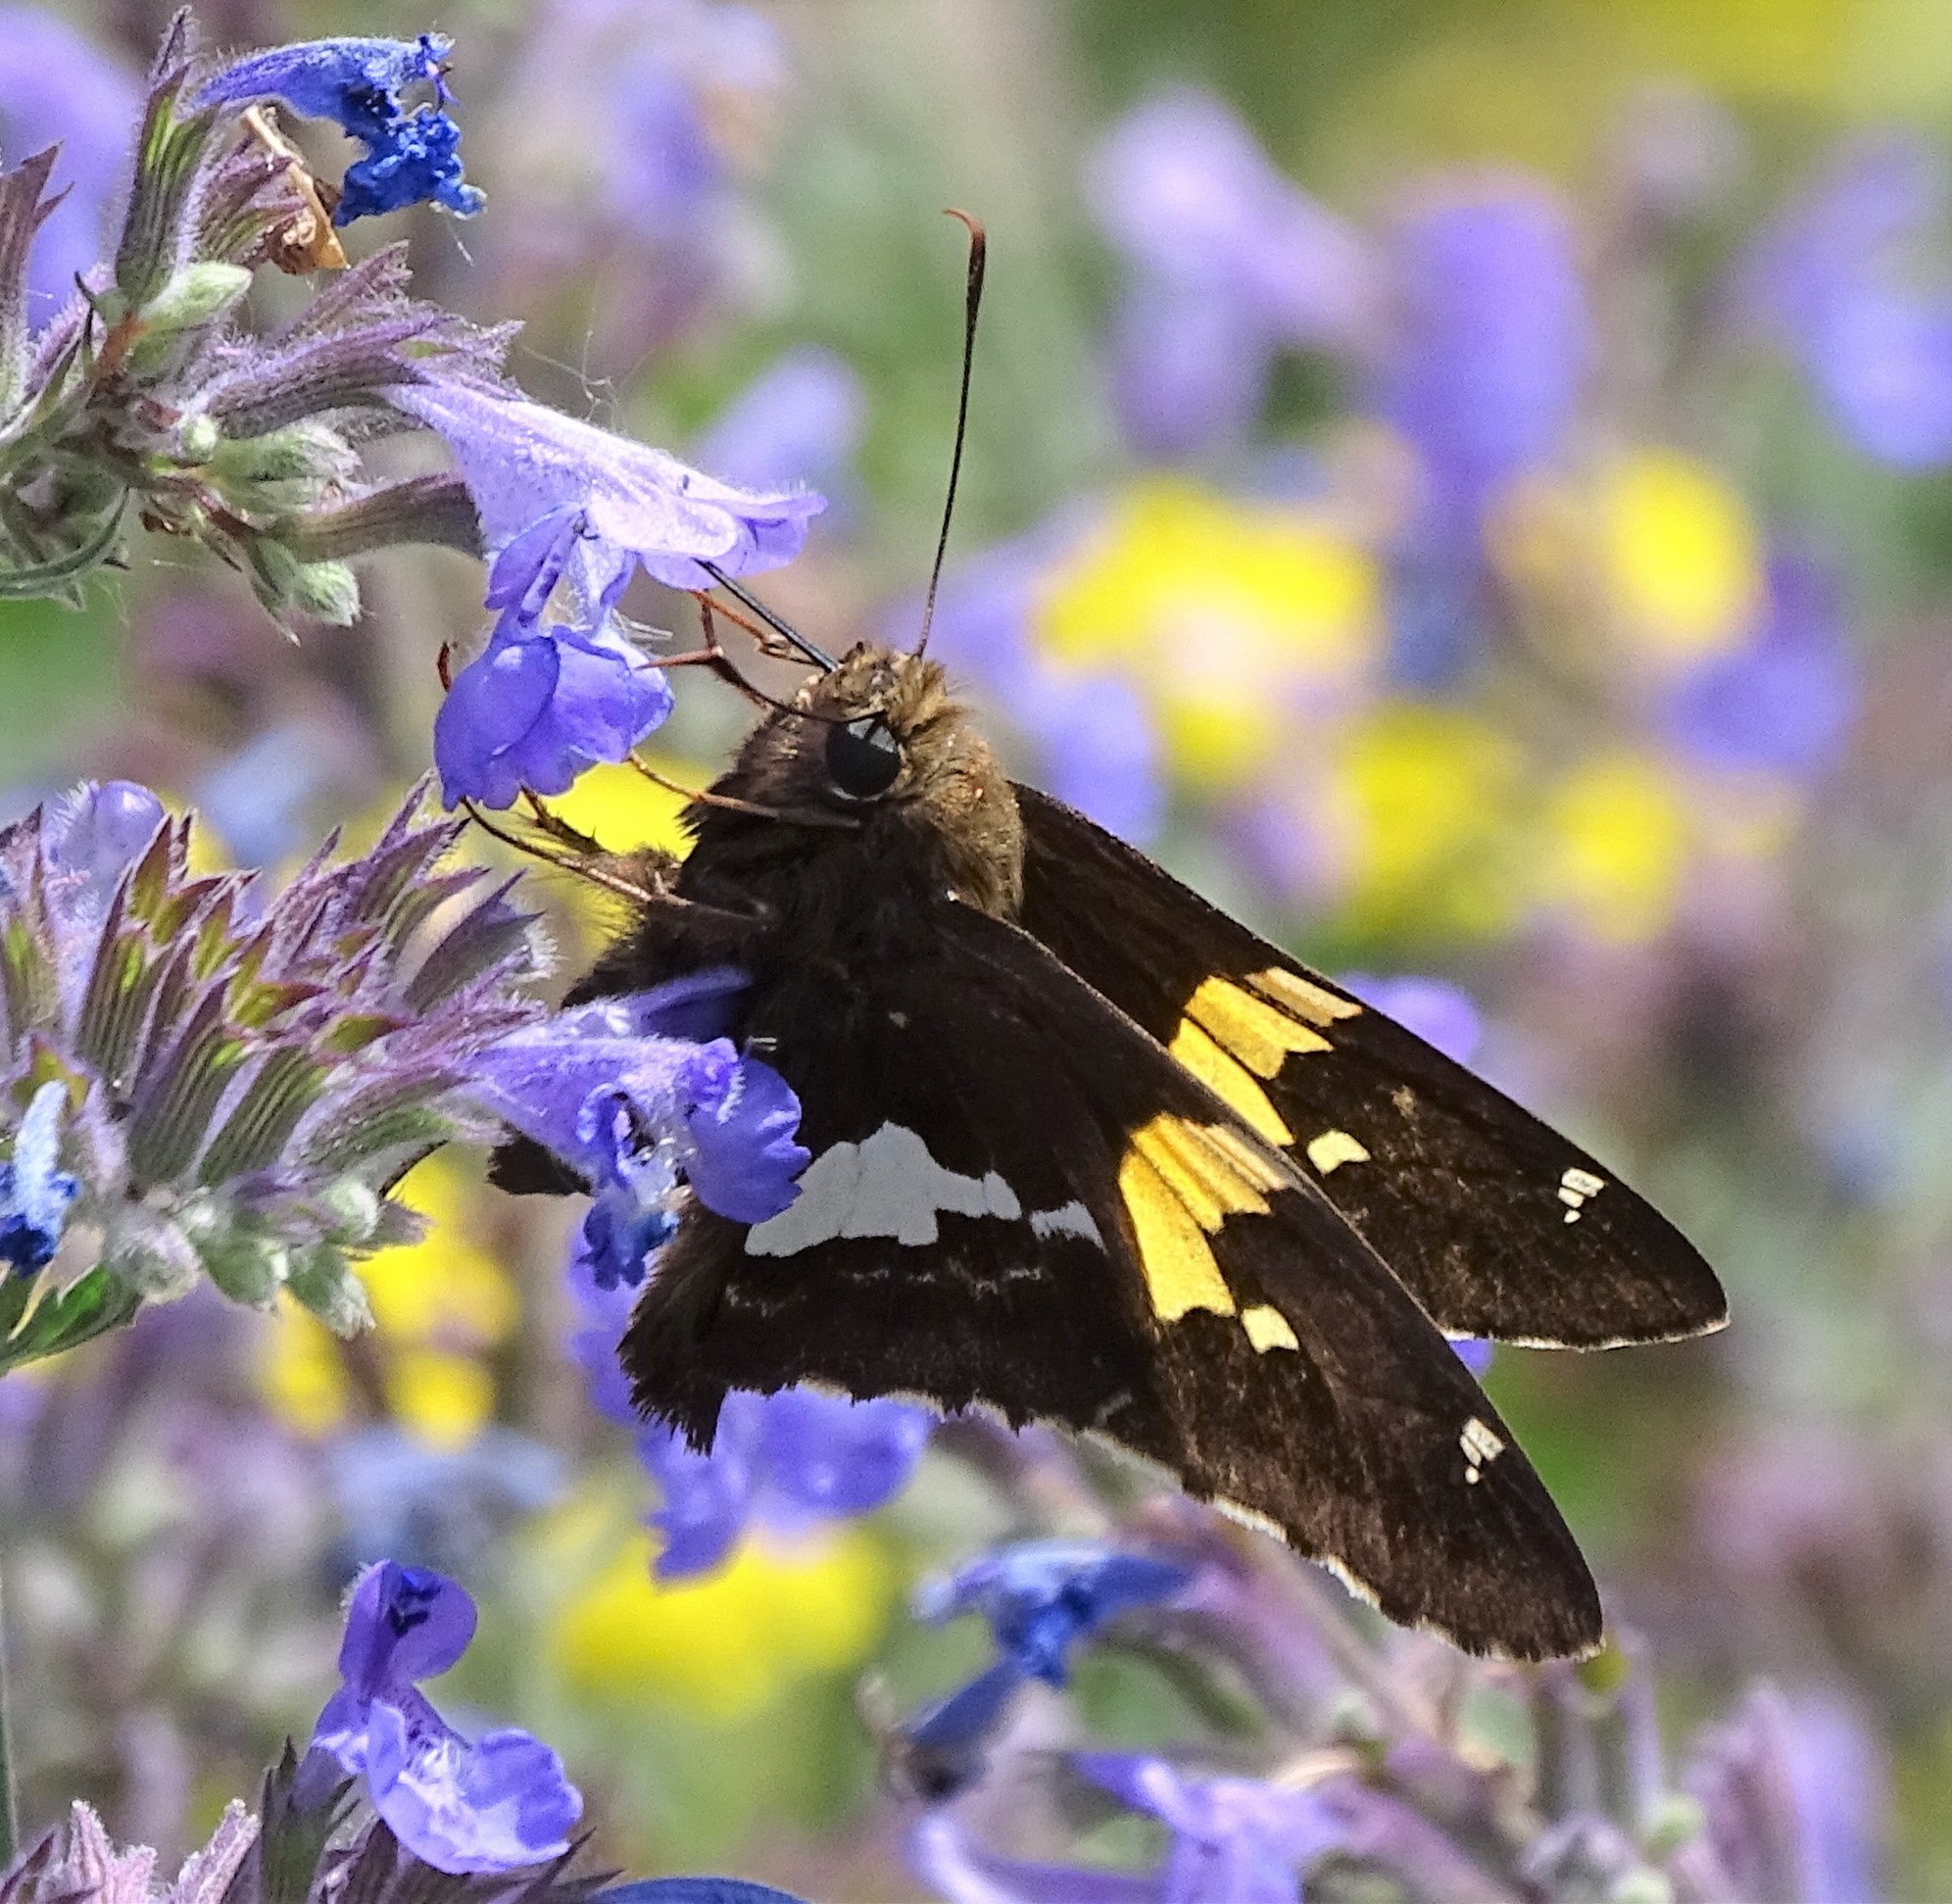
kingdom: Animalia
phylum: Arthropoda
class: Insecta
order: Lepidoptera
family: Hesperiidae
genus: Epargyreus
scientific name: Epargyreus clarus
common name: Silver-spotted skipper
